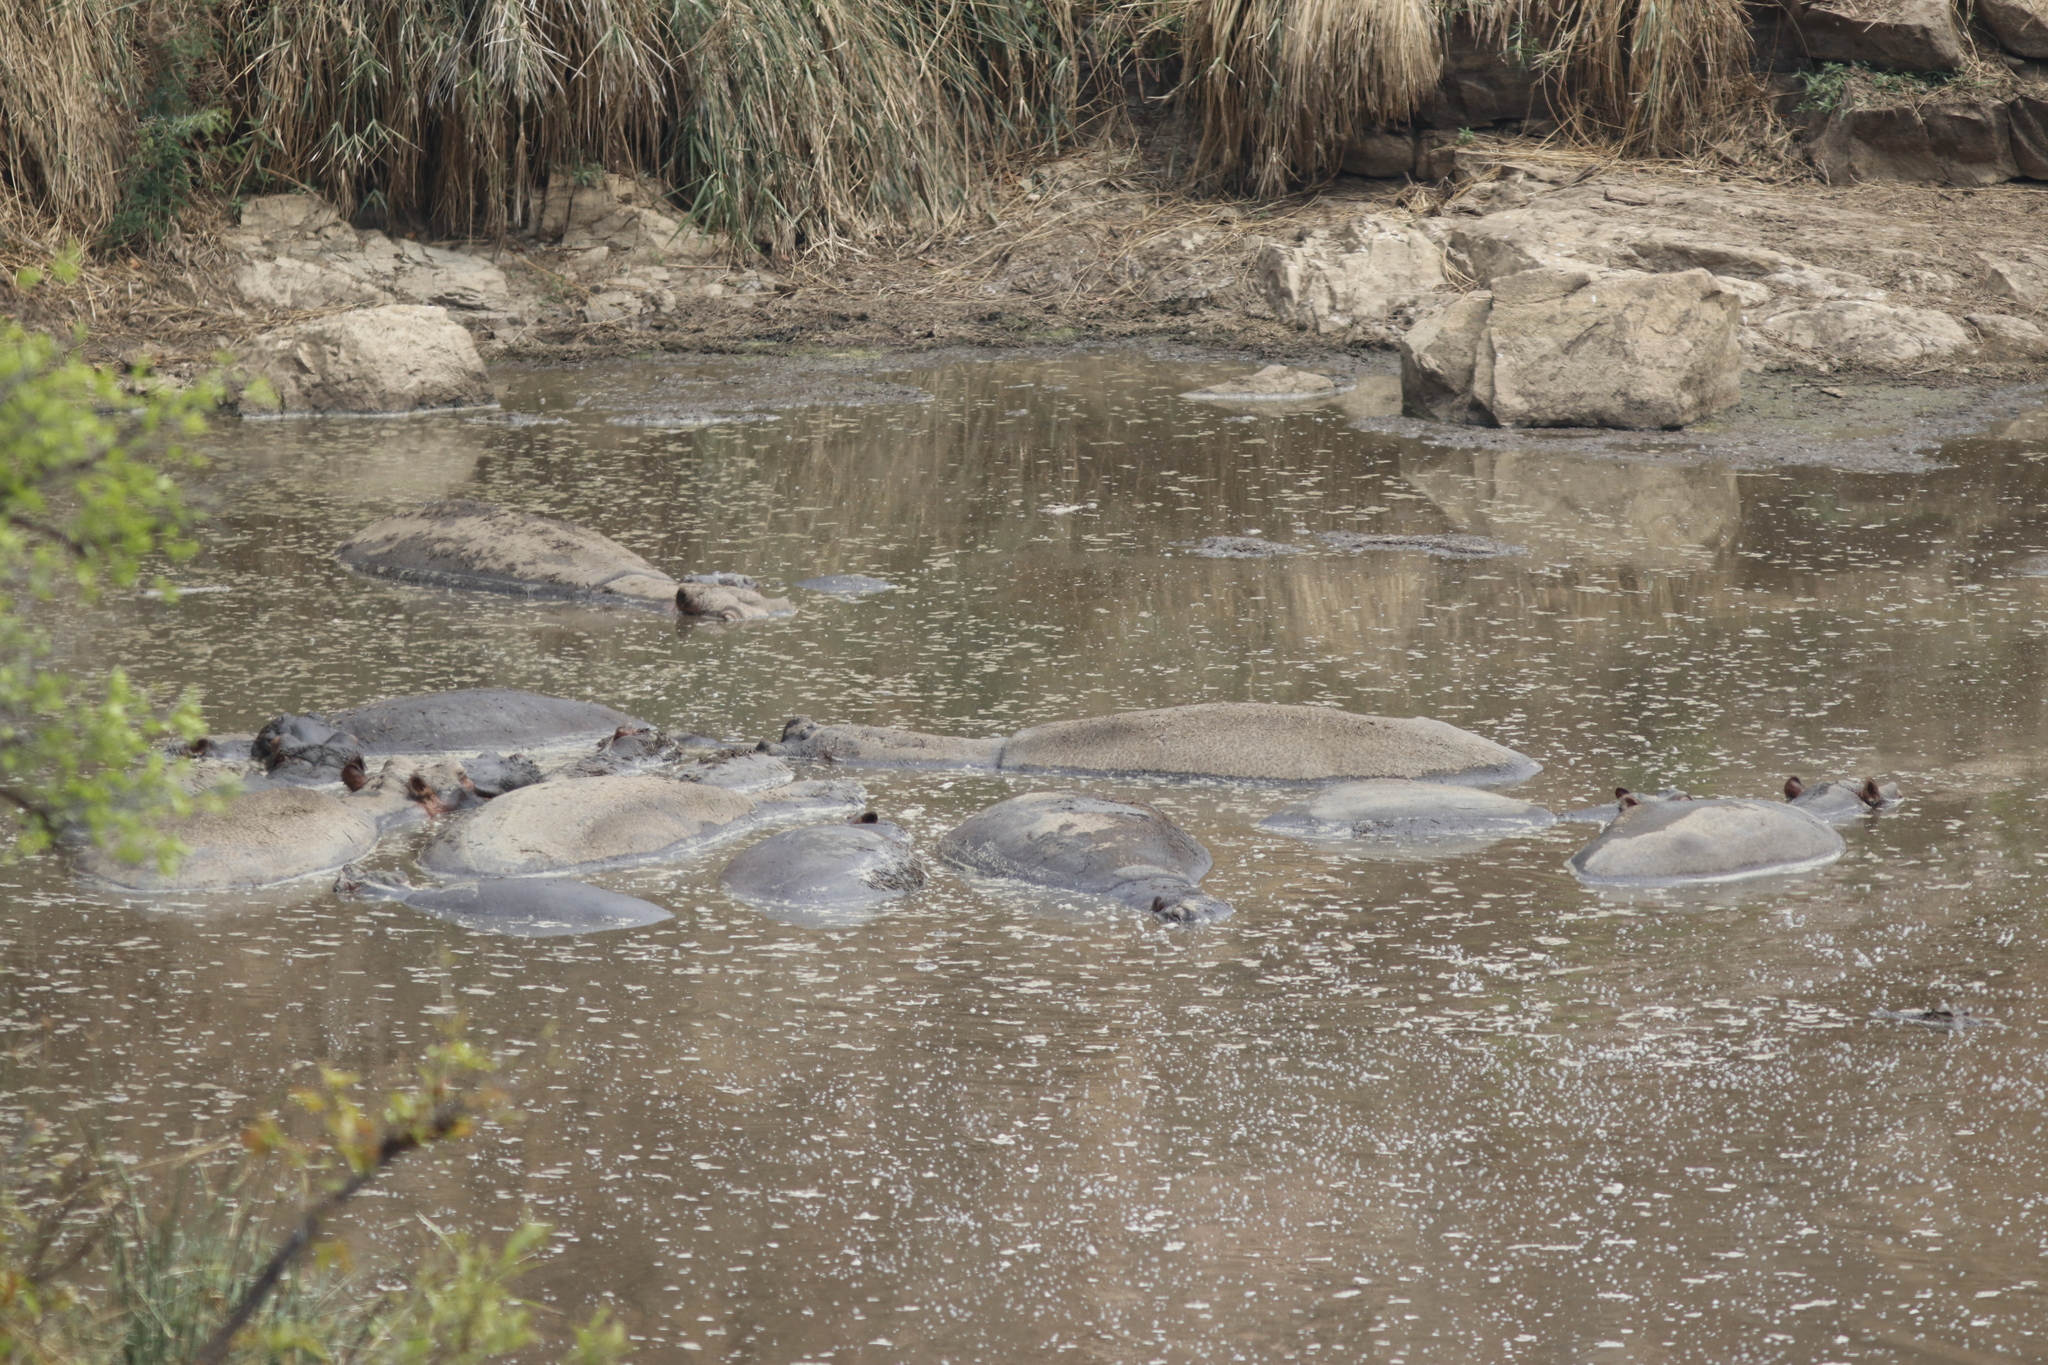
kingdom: Animalia
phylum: Chordata
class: Mammalia
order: Artiodactyla
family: Hippopotamidae
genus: Hippopotamus
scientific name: Hippopotamus amphibius
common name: Common hippopotamus
